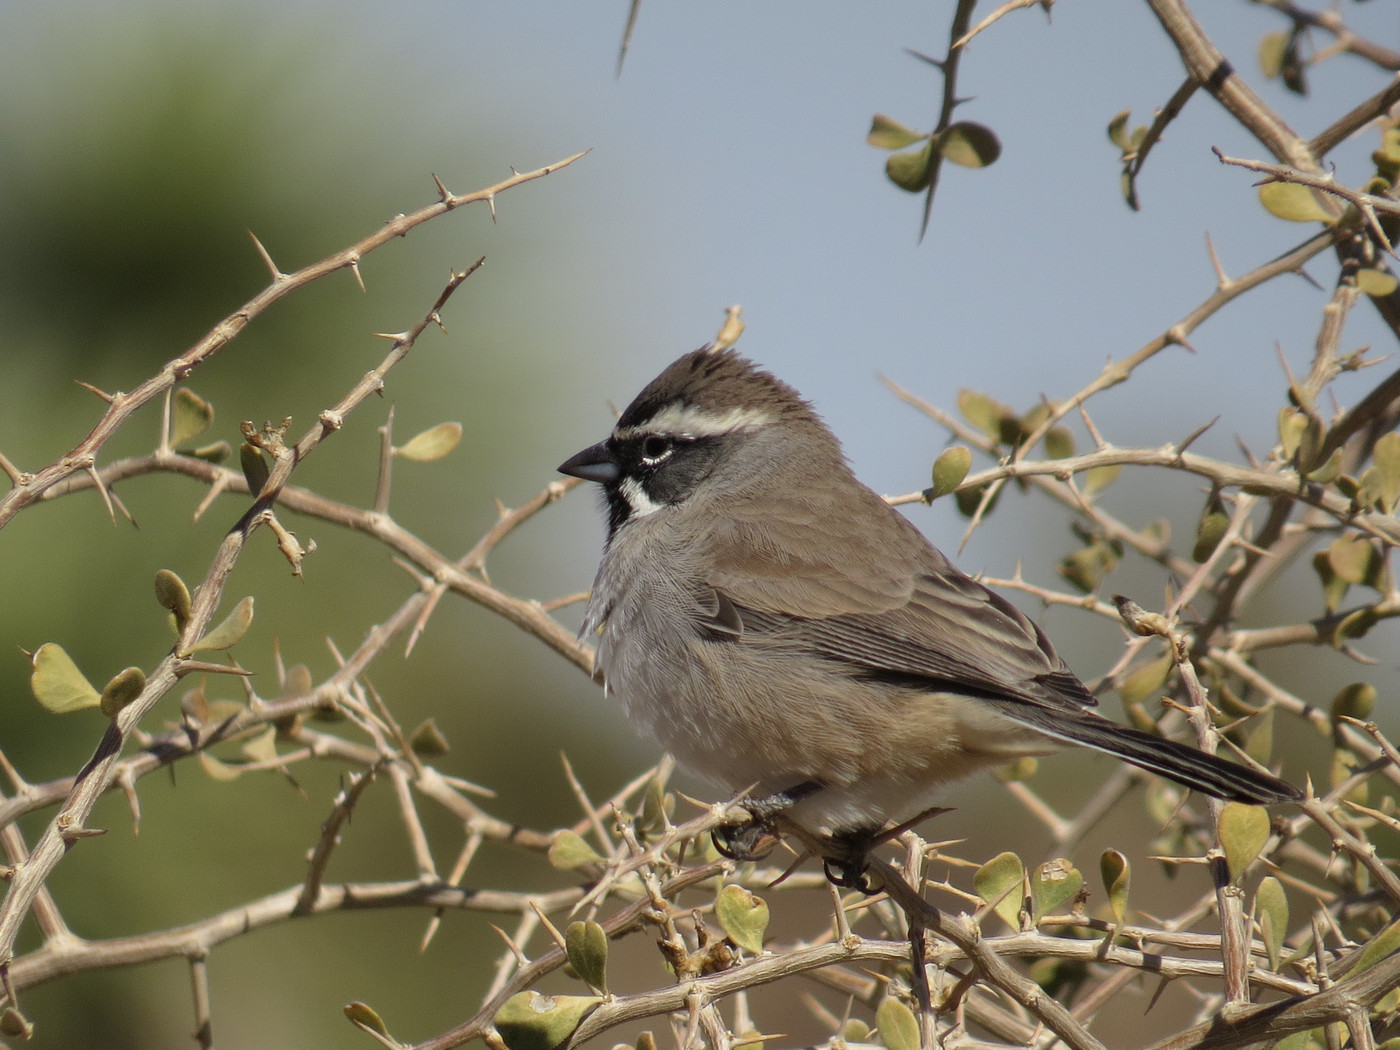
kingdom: Animalia
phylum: Chordata
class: Aves
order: Passeriformes
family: Passerellidae
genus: Amphispiza
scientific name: Amphispiza bilineata
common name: Black-throated sparrow
